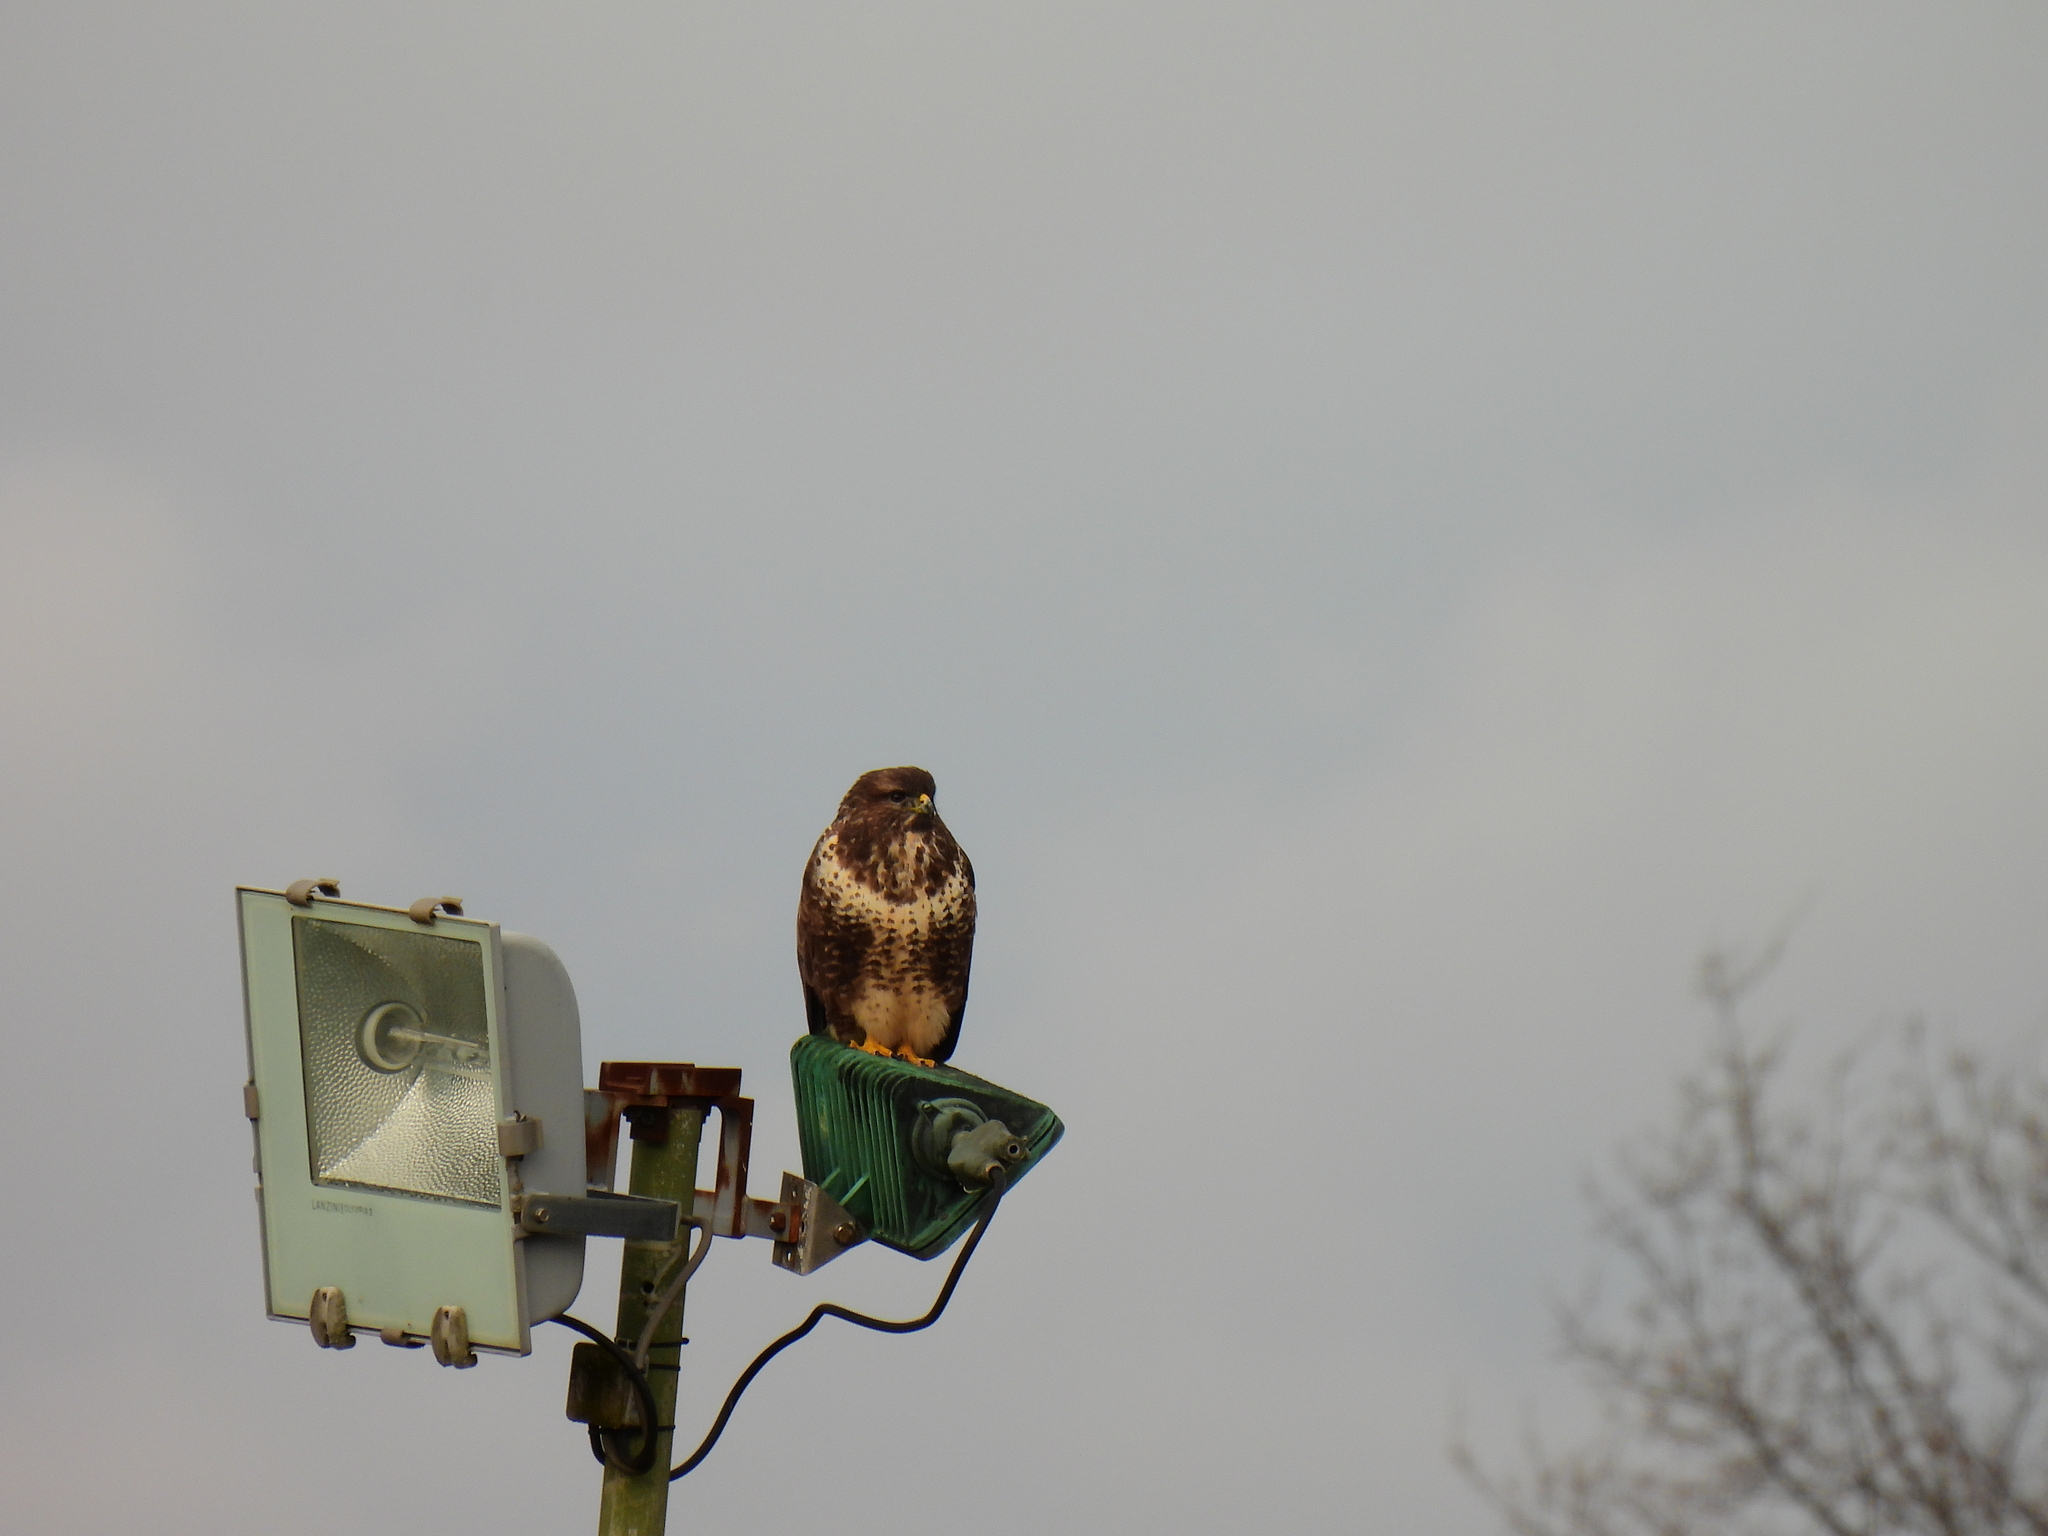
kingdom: Animalia
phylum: Chordata
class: Aves
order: Accipitriformes
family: Accipitridae
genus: Buteo
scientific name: Buteo buteo
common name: Common buzzard
